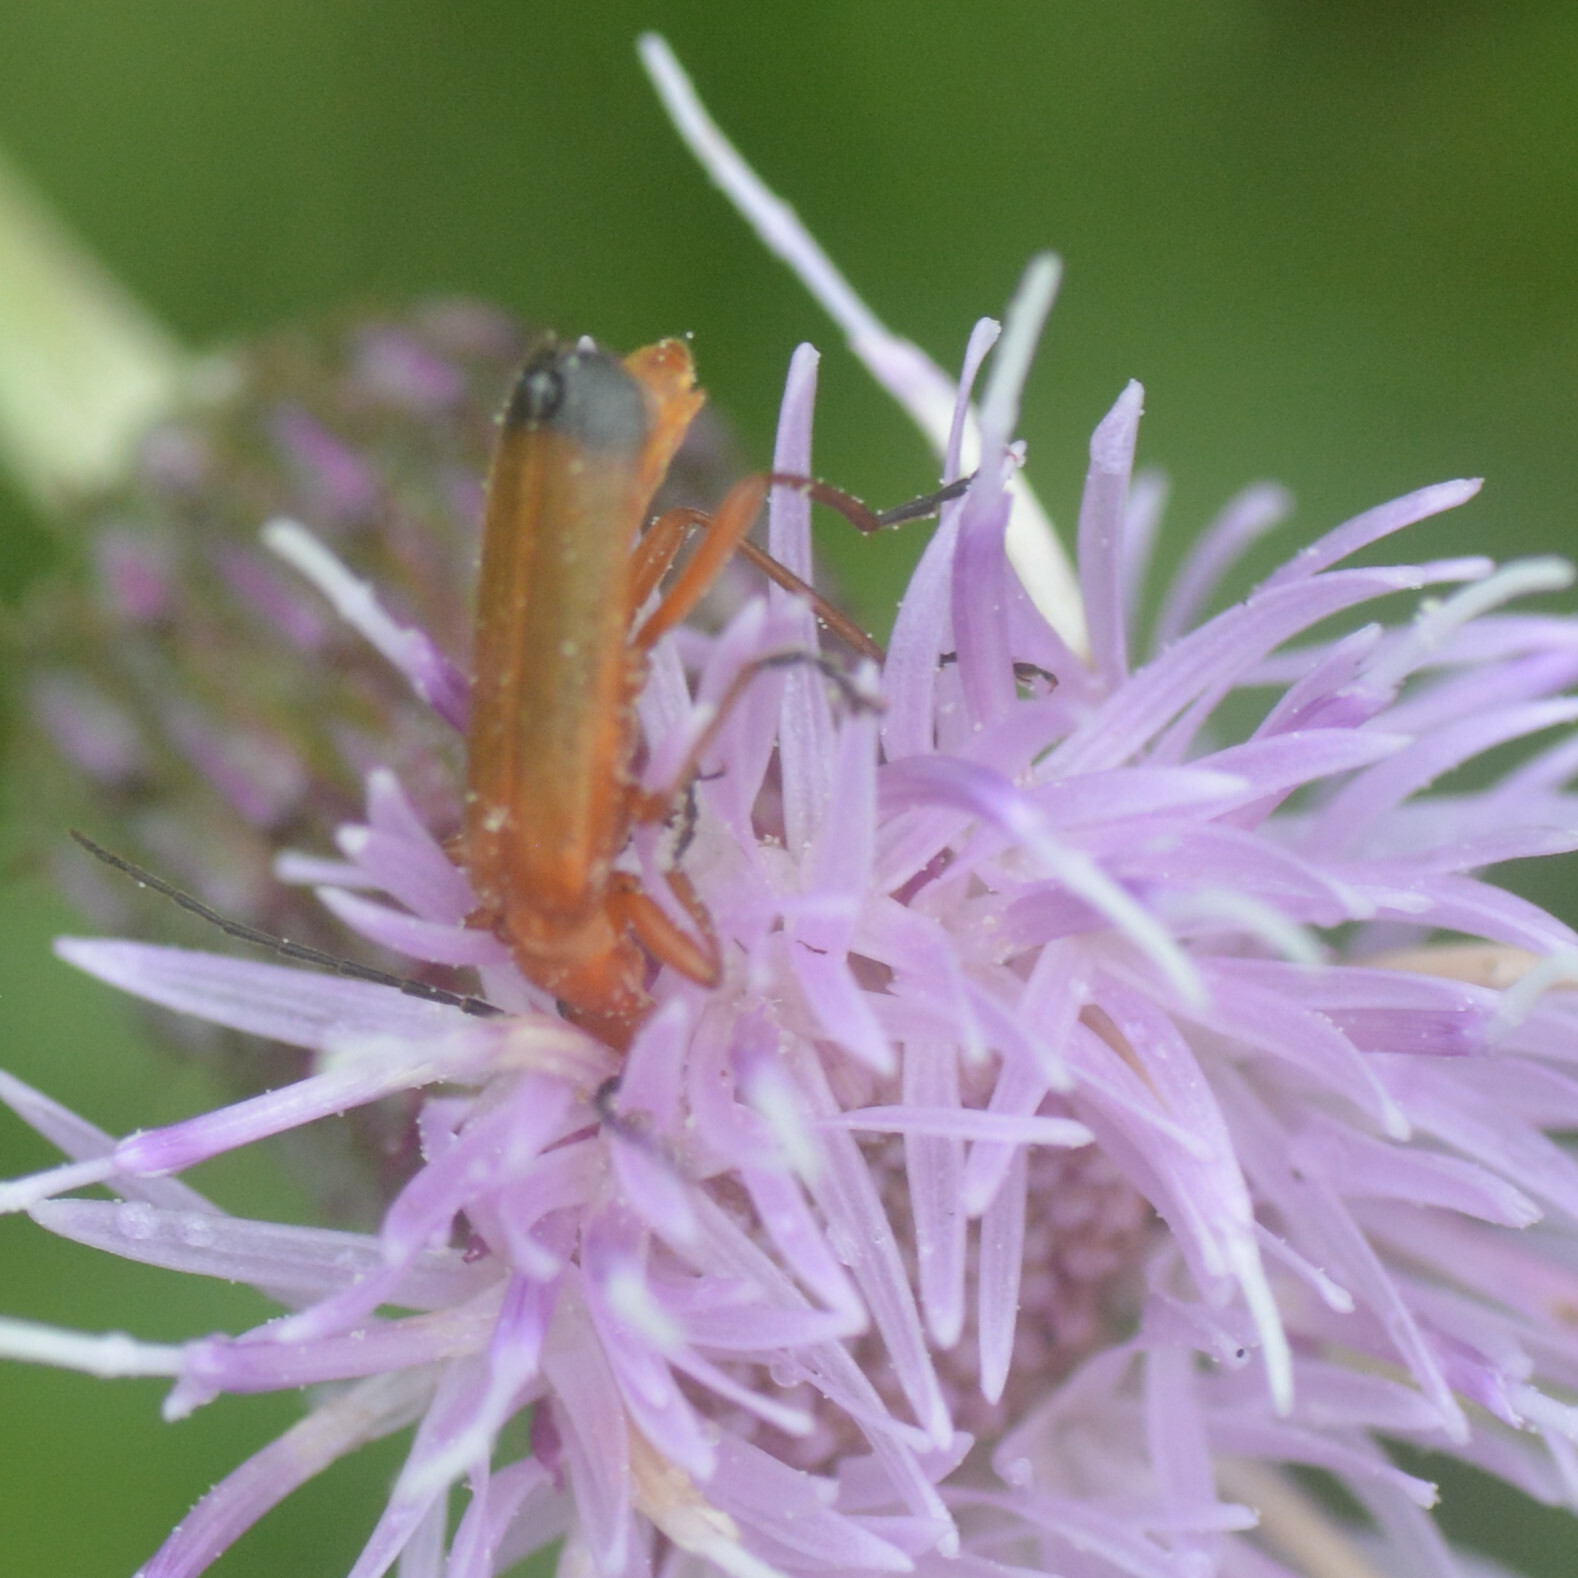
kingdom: Animalia
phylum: Arthropoda
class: Insecta
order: Coleoptera
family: Cantharidae
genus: Rhagonycha
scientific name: Rhagonycha fulva
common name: Common red soldier beetle
